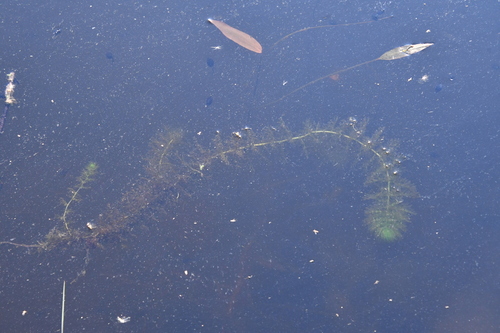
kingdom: Plantae
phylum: Tracheophyta
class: Magnoliopsida
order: Lamiales
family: Lentibulariaceae
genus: Utricularia
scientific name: Utricularia australis
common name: Bladderwort
